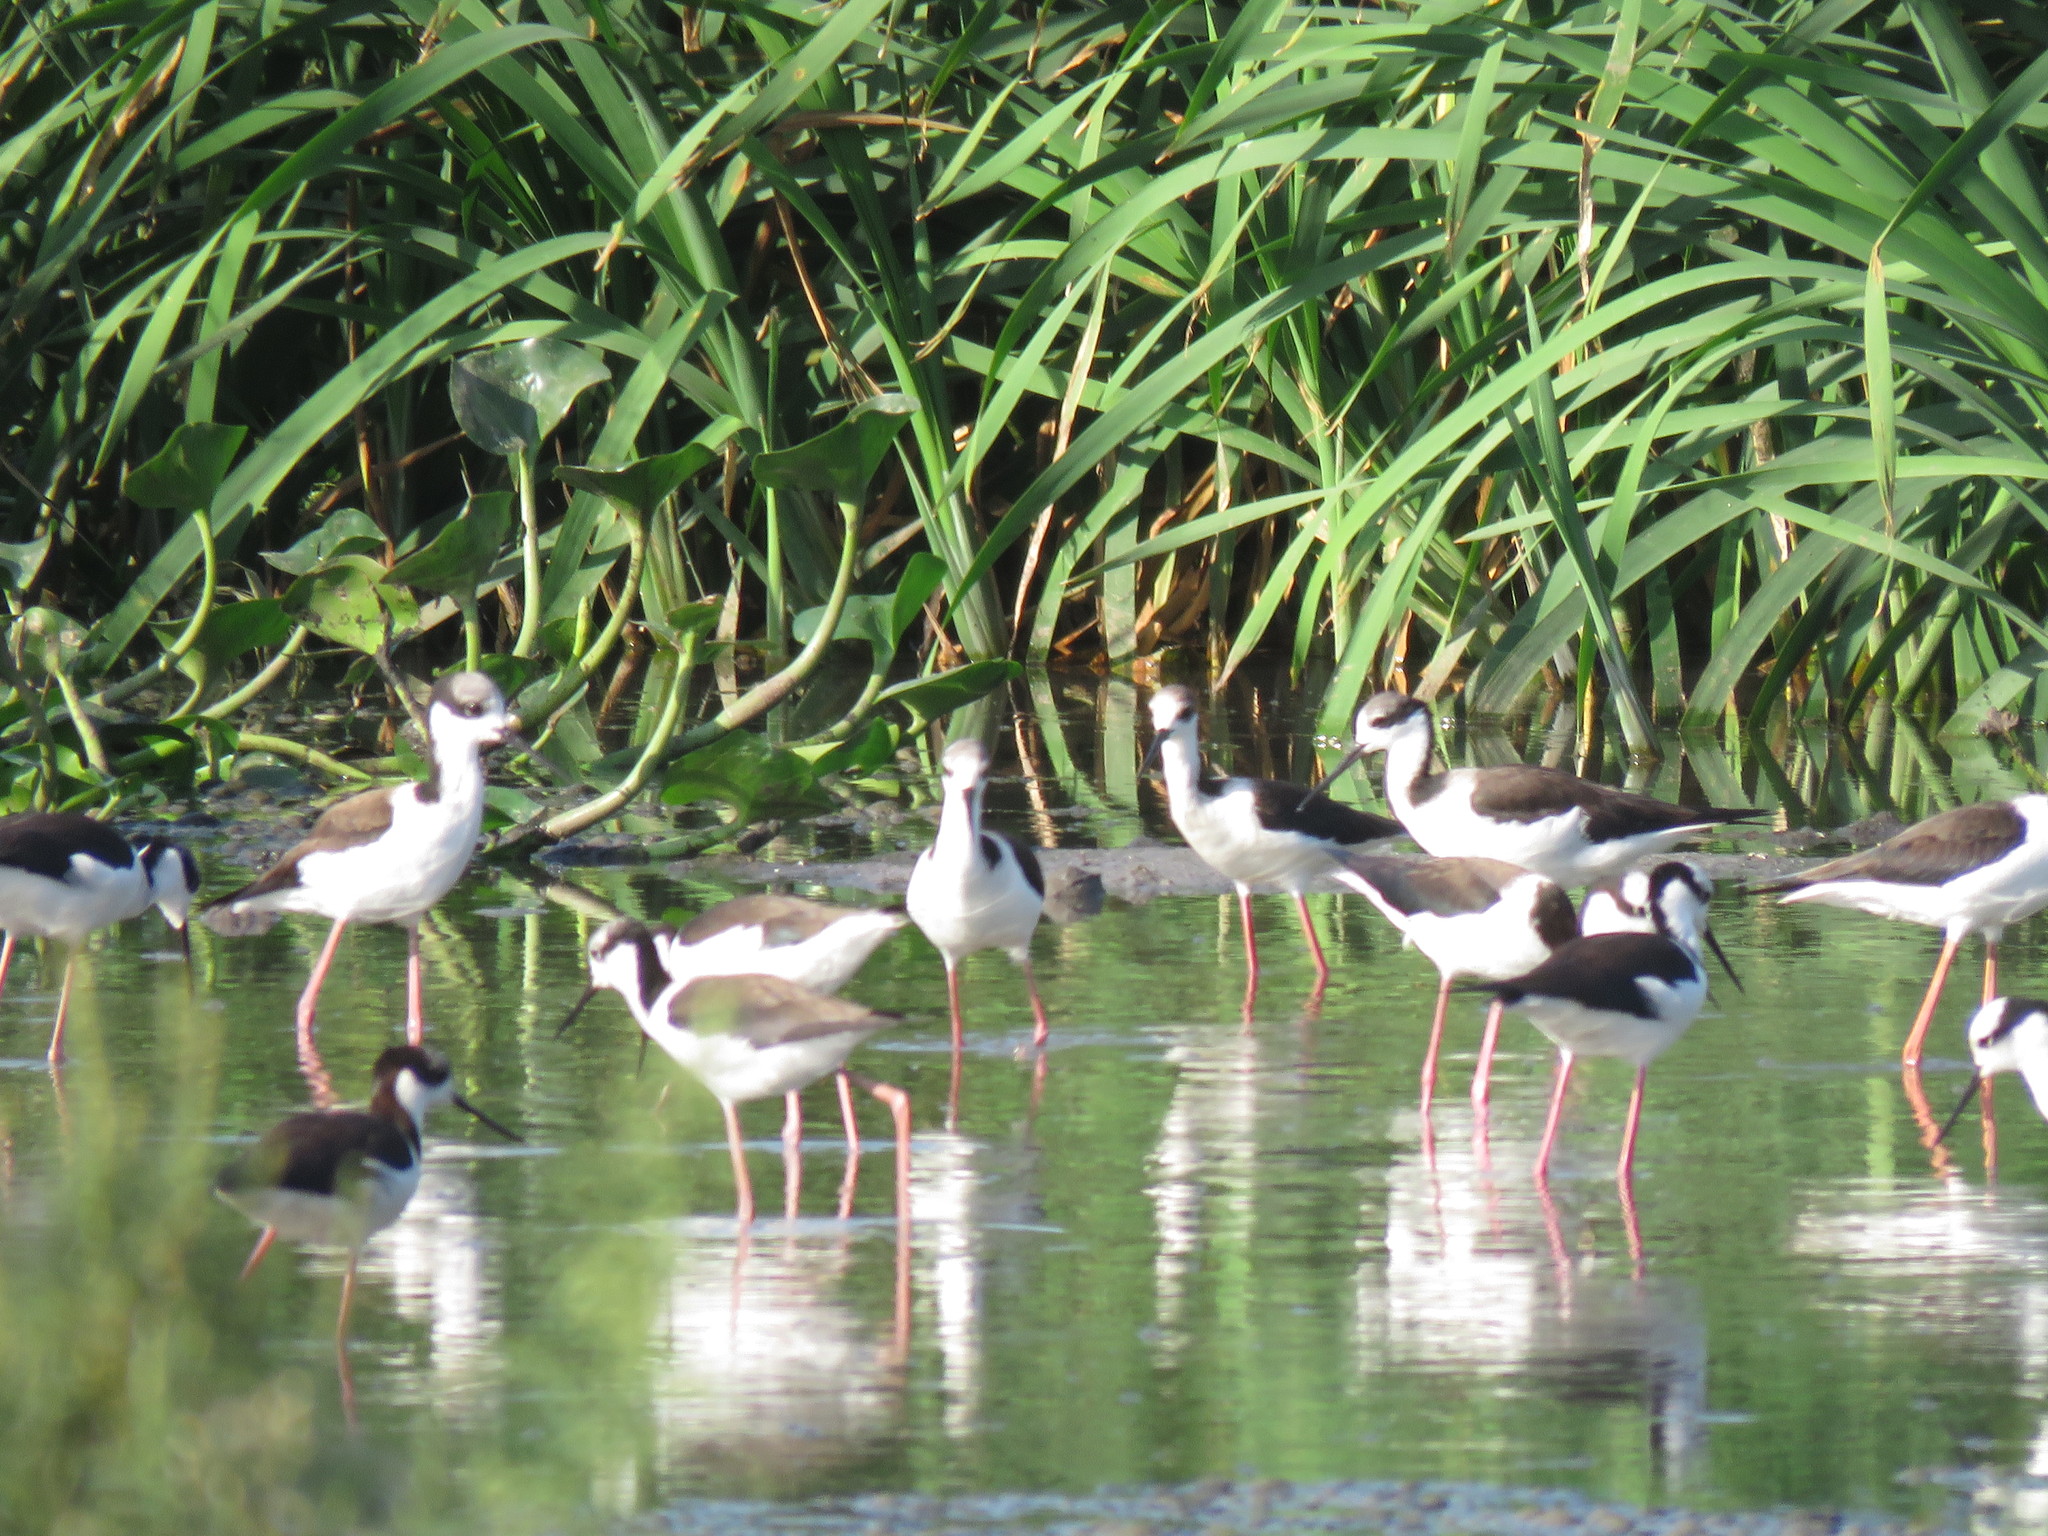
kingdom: Animalia
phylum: Chordata
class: Aves
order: Charadriiformes
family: Recurvirostridae
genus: Himantopus
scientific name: Himantopus mexicanus
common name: Black-necked stilt
